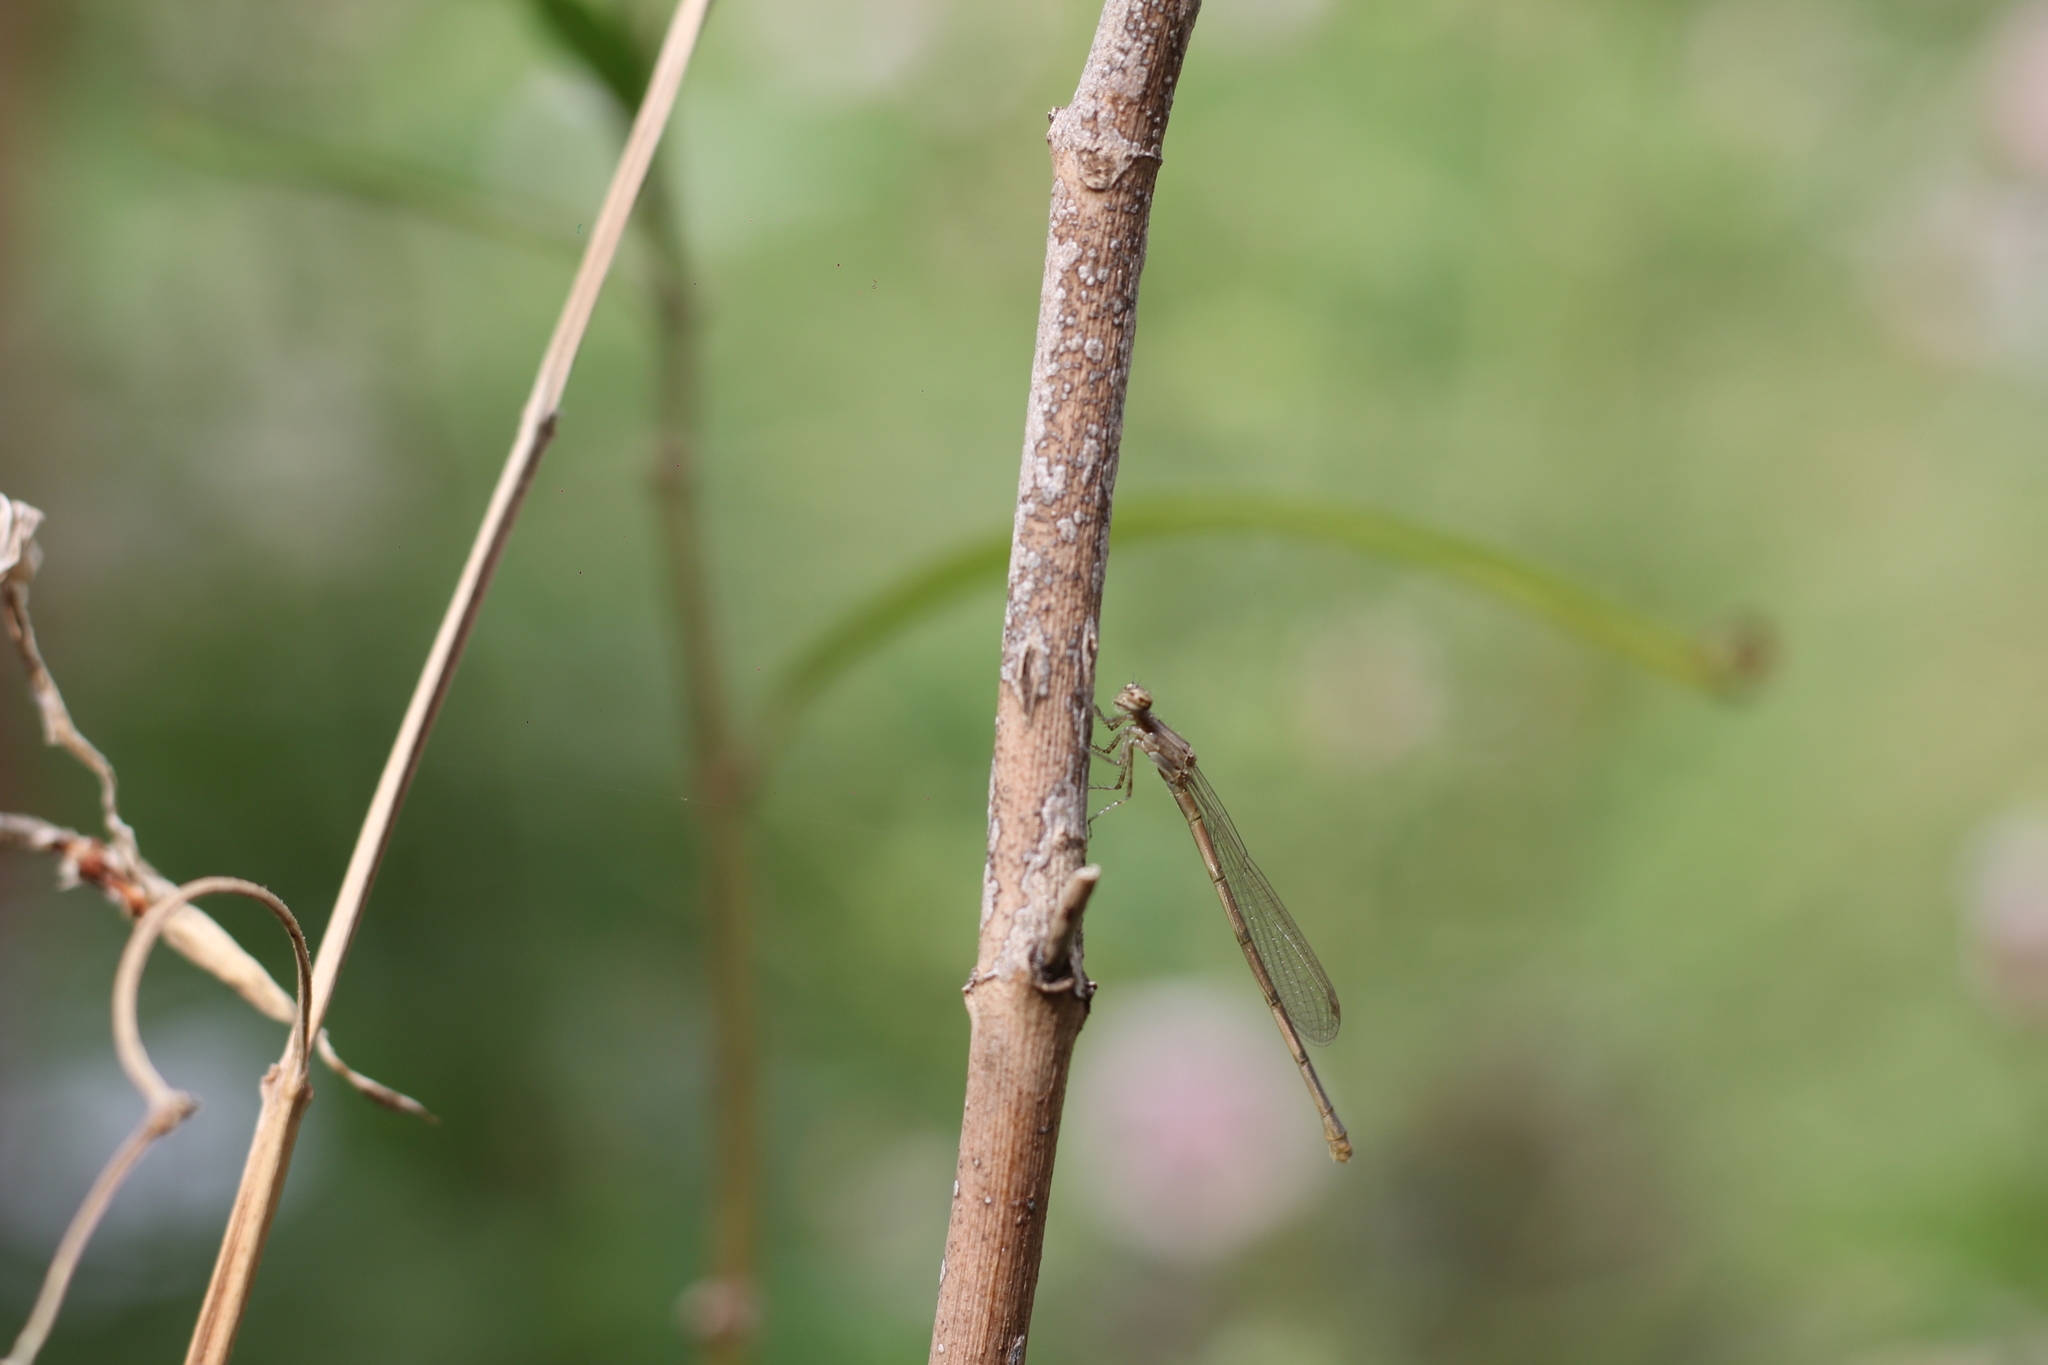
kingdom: Animalia
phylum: Arthropoda
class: Insecta
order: Odonata
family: Coenagrionidae
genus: Oxyagrion
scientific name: Oxyagrion terminale
